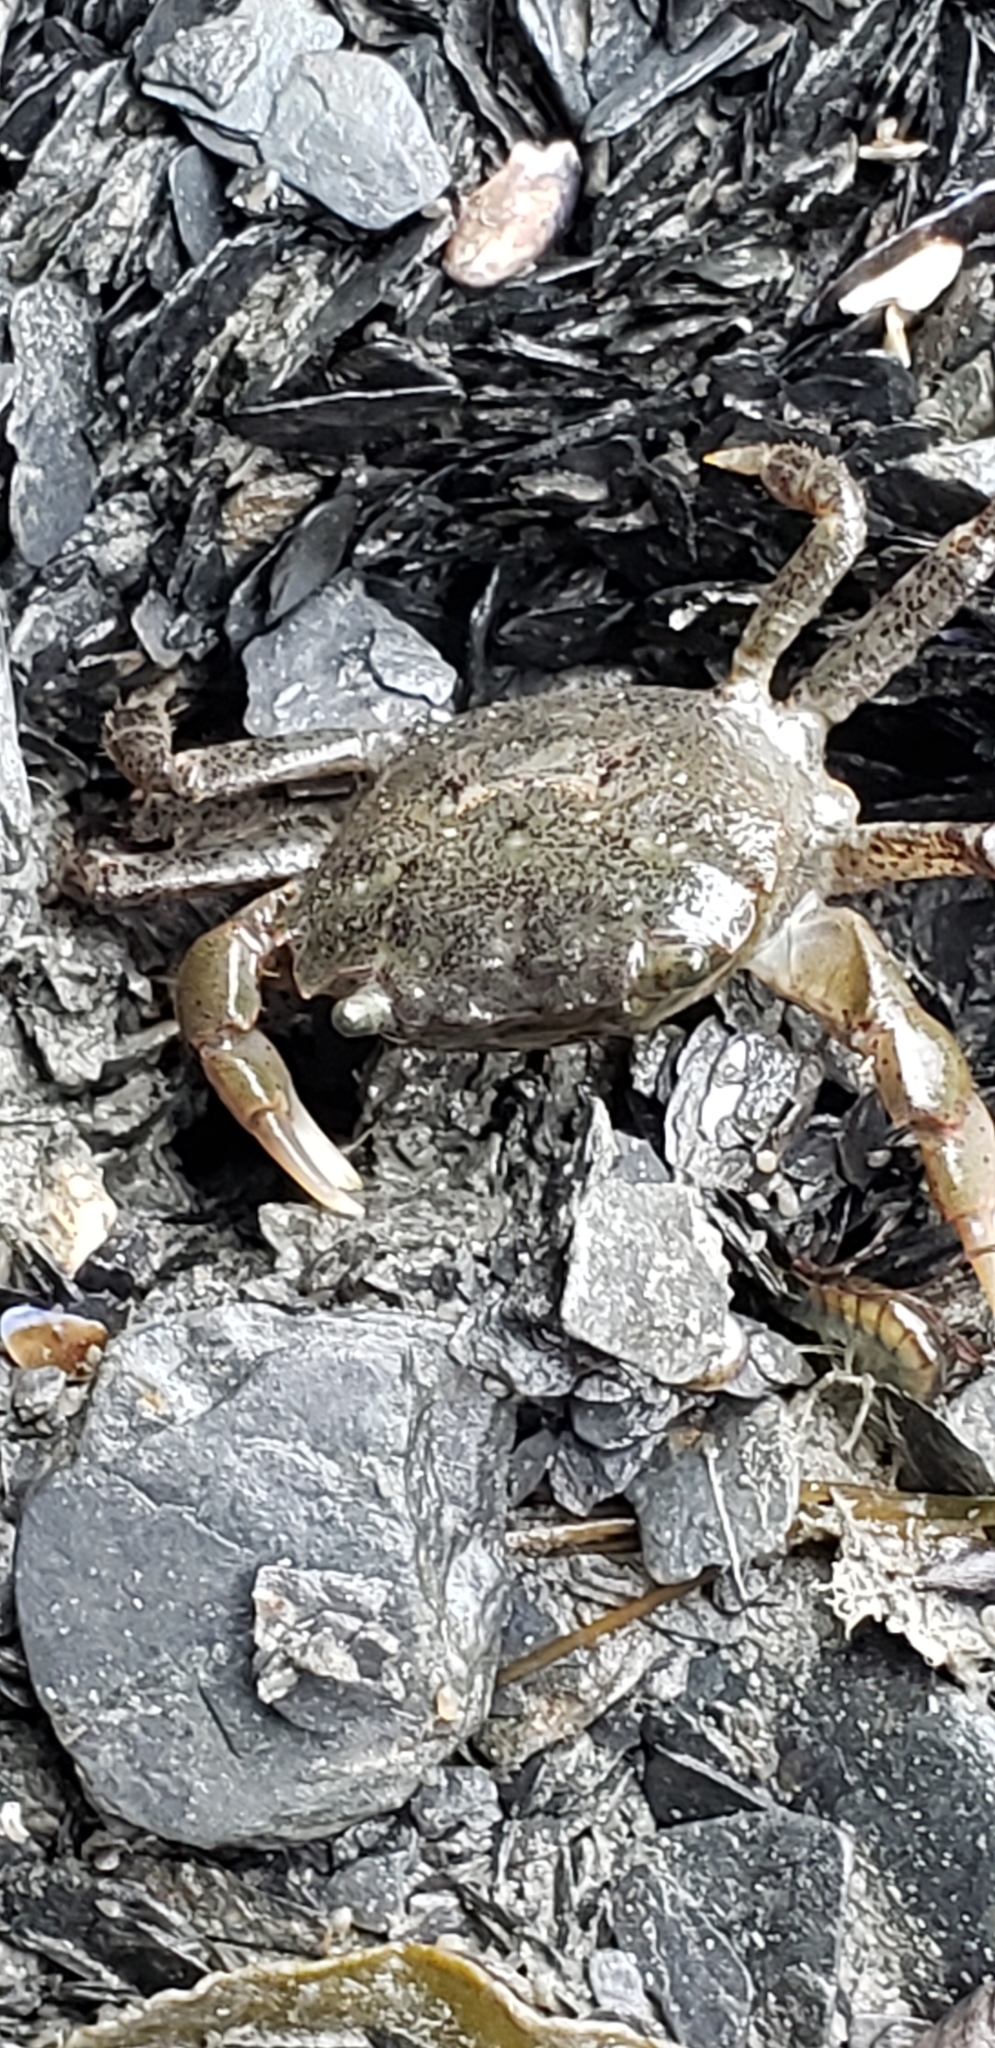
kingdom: Animalia
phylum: Arthropoda
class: Malacostraca
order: Decapoda
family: Varunidae
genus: Hemigrapsus
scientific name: Hemigrapsus oregonensis
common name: Yellow shore crab
